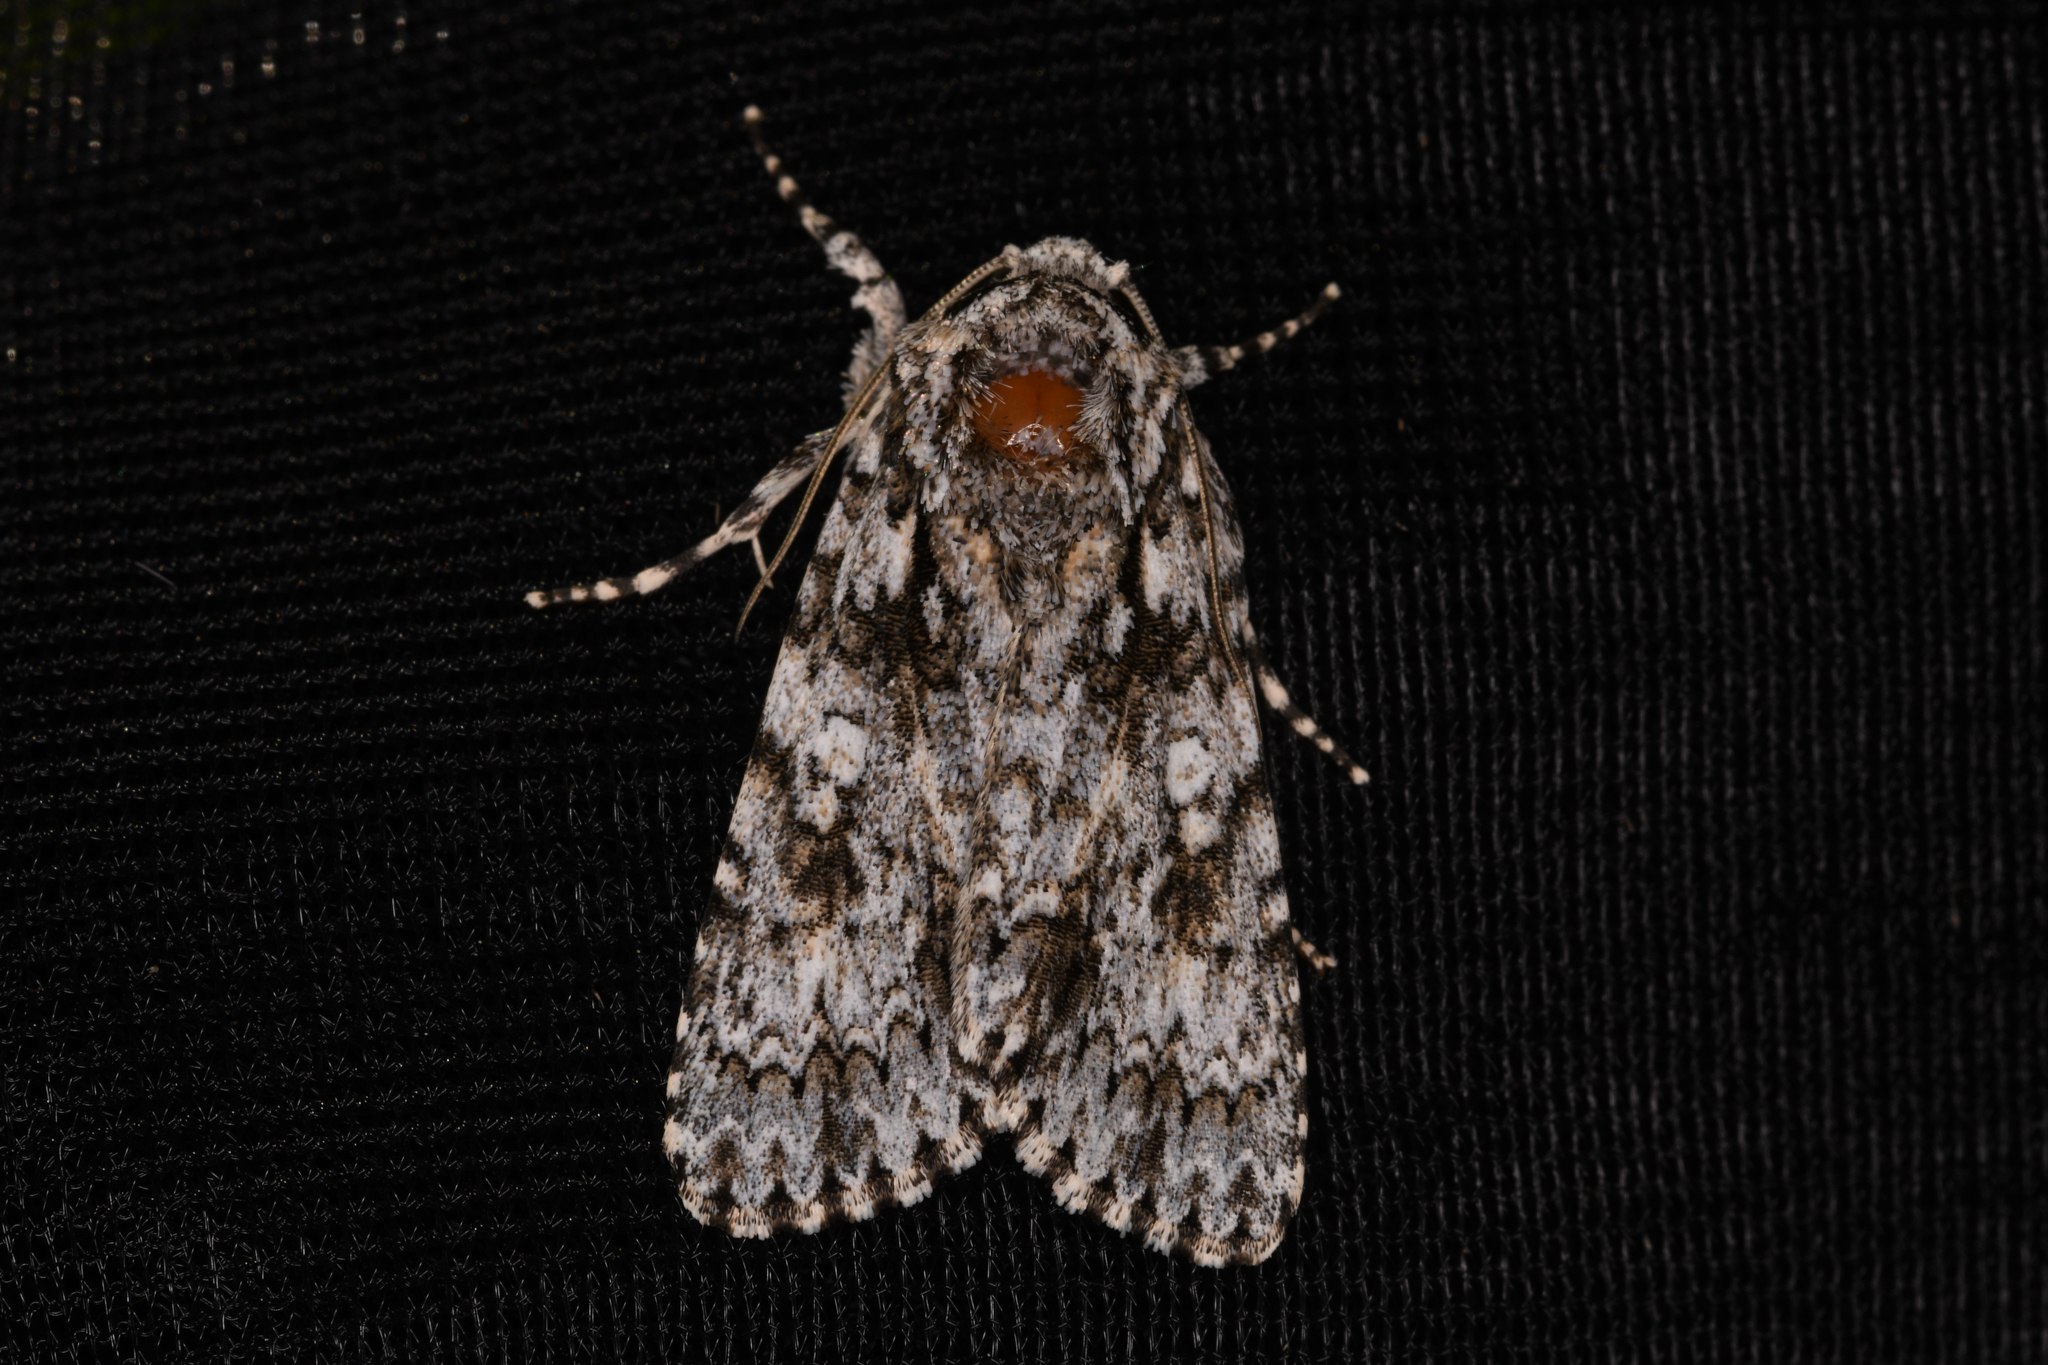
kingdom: Animalia
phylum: Arthropoda
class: Insecta
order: Lepidoptera
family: Noctuidae
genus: Acronicta
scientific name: Acronicta marmorata
